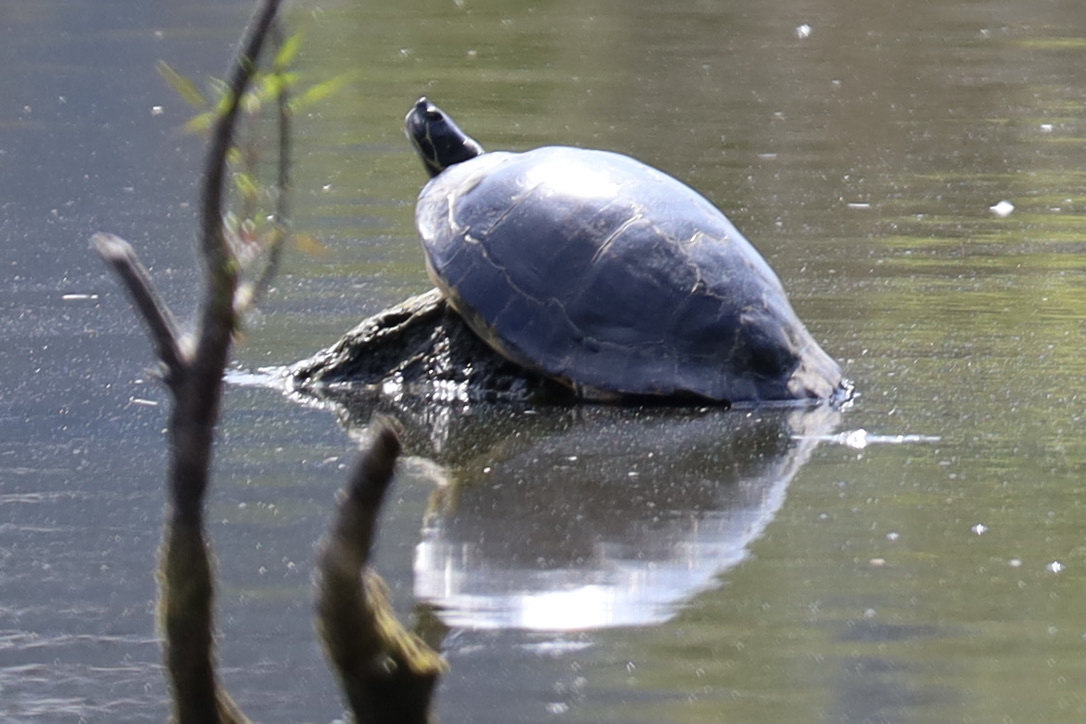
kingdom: Animalia
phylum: Chordata
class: Testudines
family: Emydidae
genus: Pseudemys
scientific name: Pseudemys concinna
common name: Eastern river cooter
